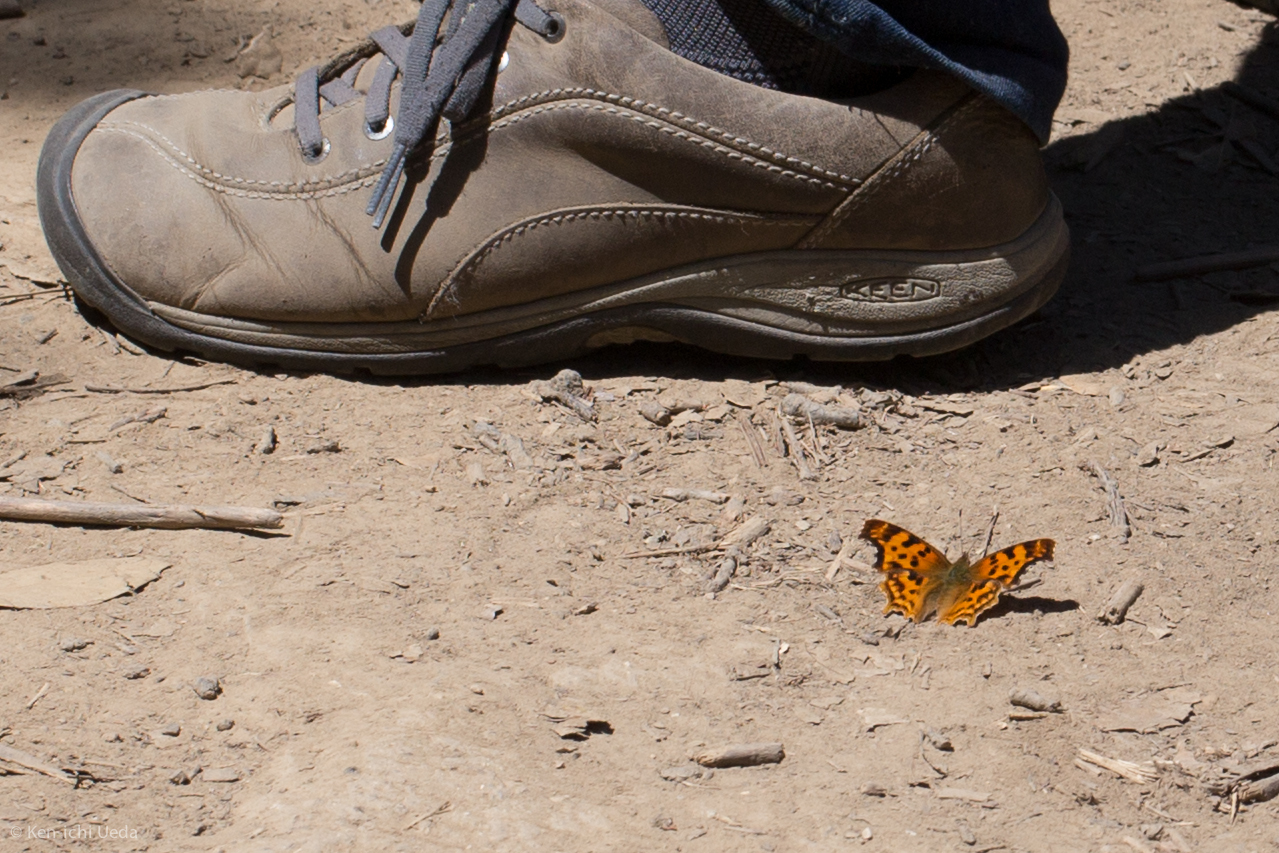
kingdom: Animalia
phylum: Arthropoda
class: Insecta
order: Lepidoptera
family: Nymphalidae
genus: Polygonia
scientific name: Polygonia satyrus
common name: Satyr angle wing
